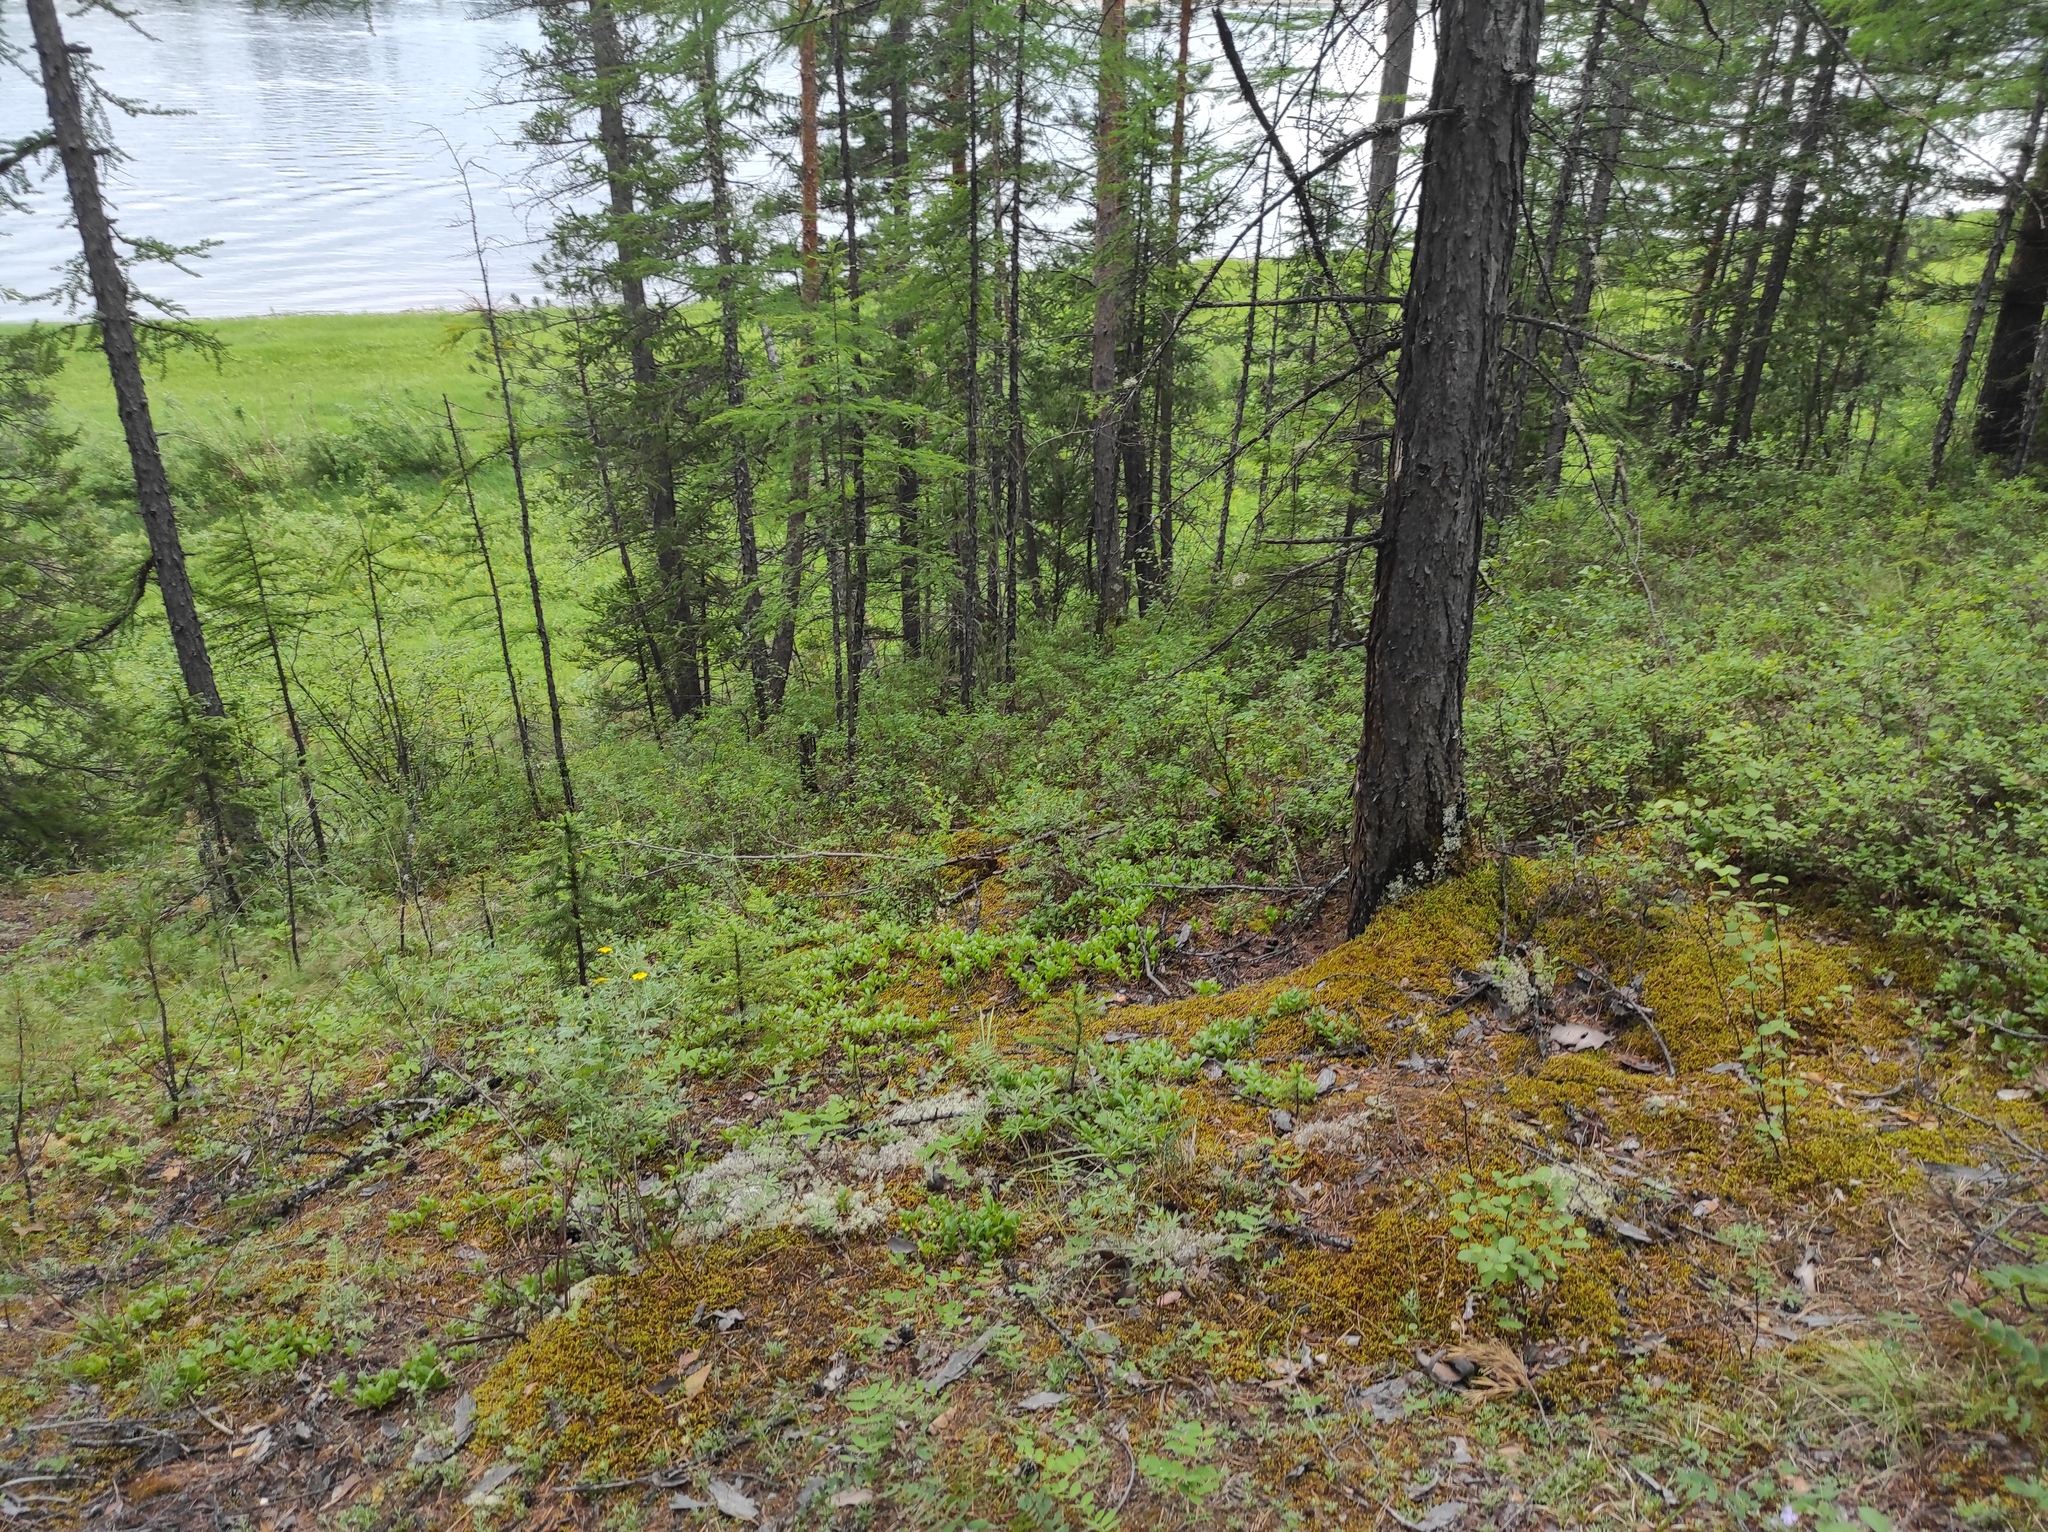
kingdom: Plantae
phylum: Tracheophyta
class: Magnoliopsida
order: Asterales
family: Asteraceae
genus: Chrysanthemum
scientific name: Chrysanthemum zawadzkii
